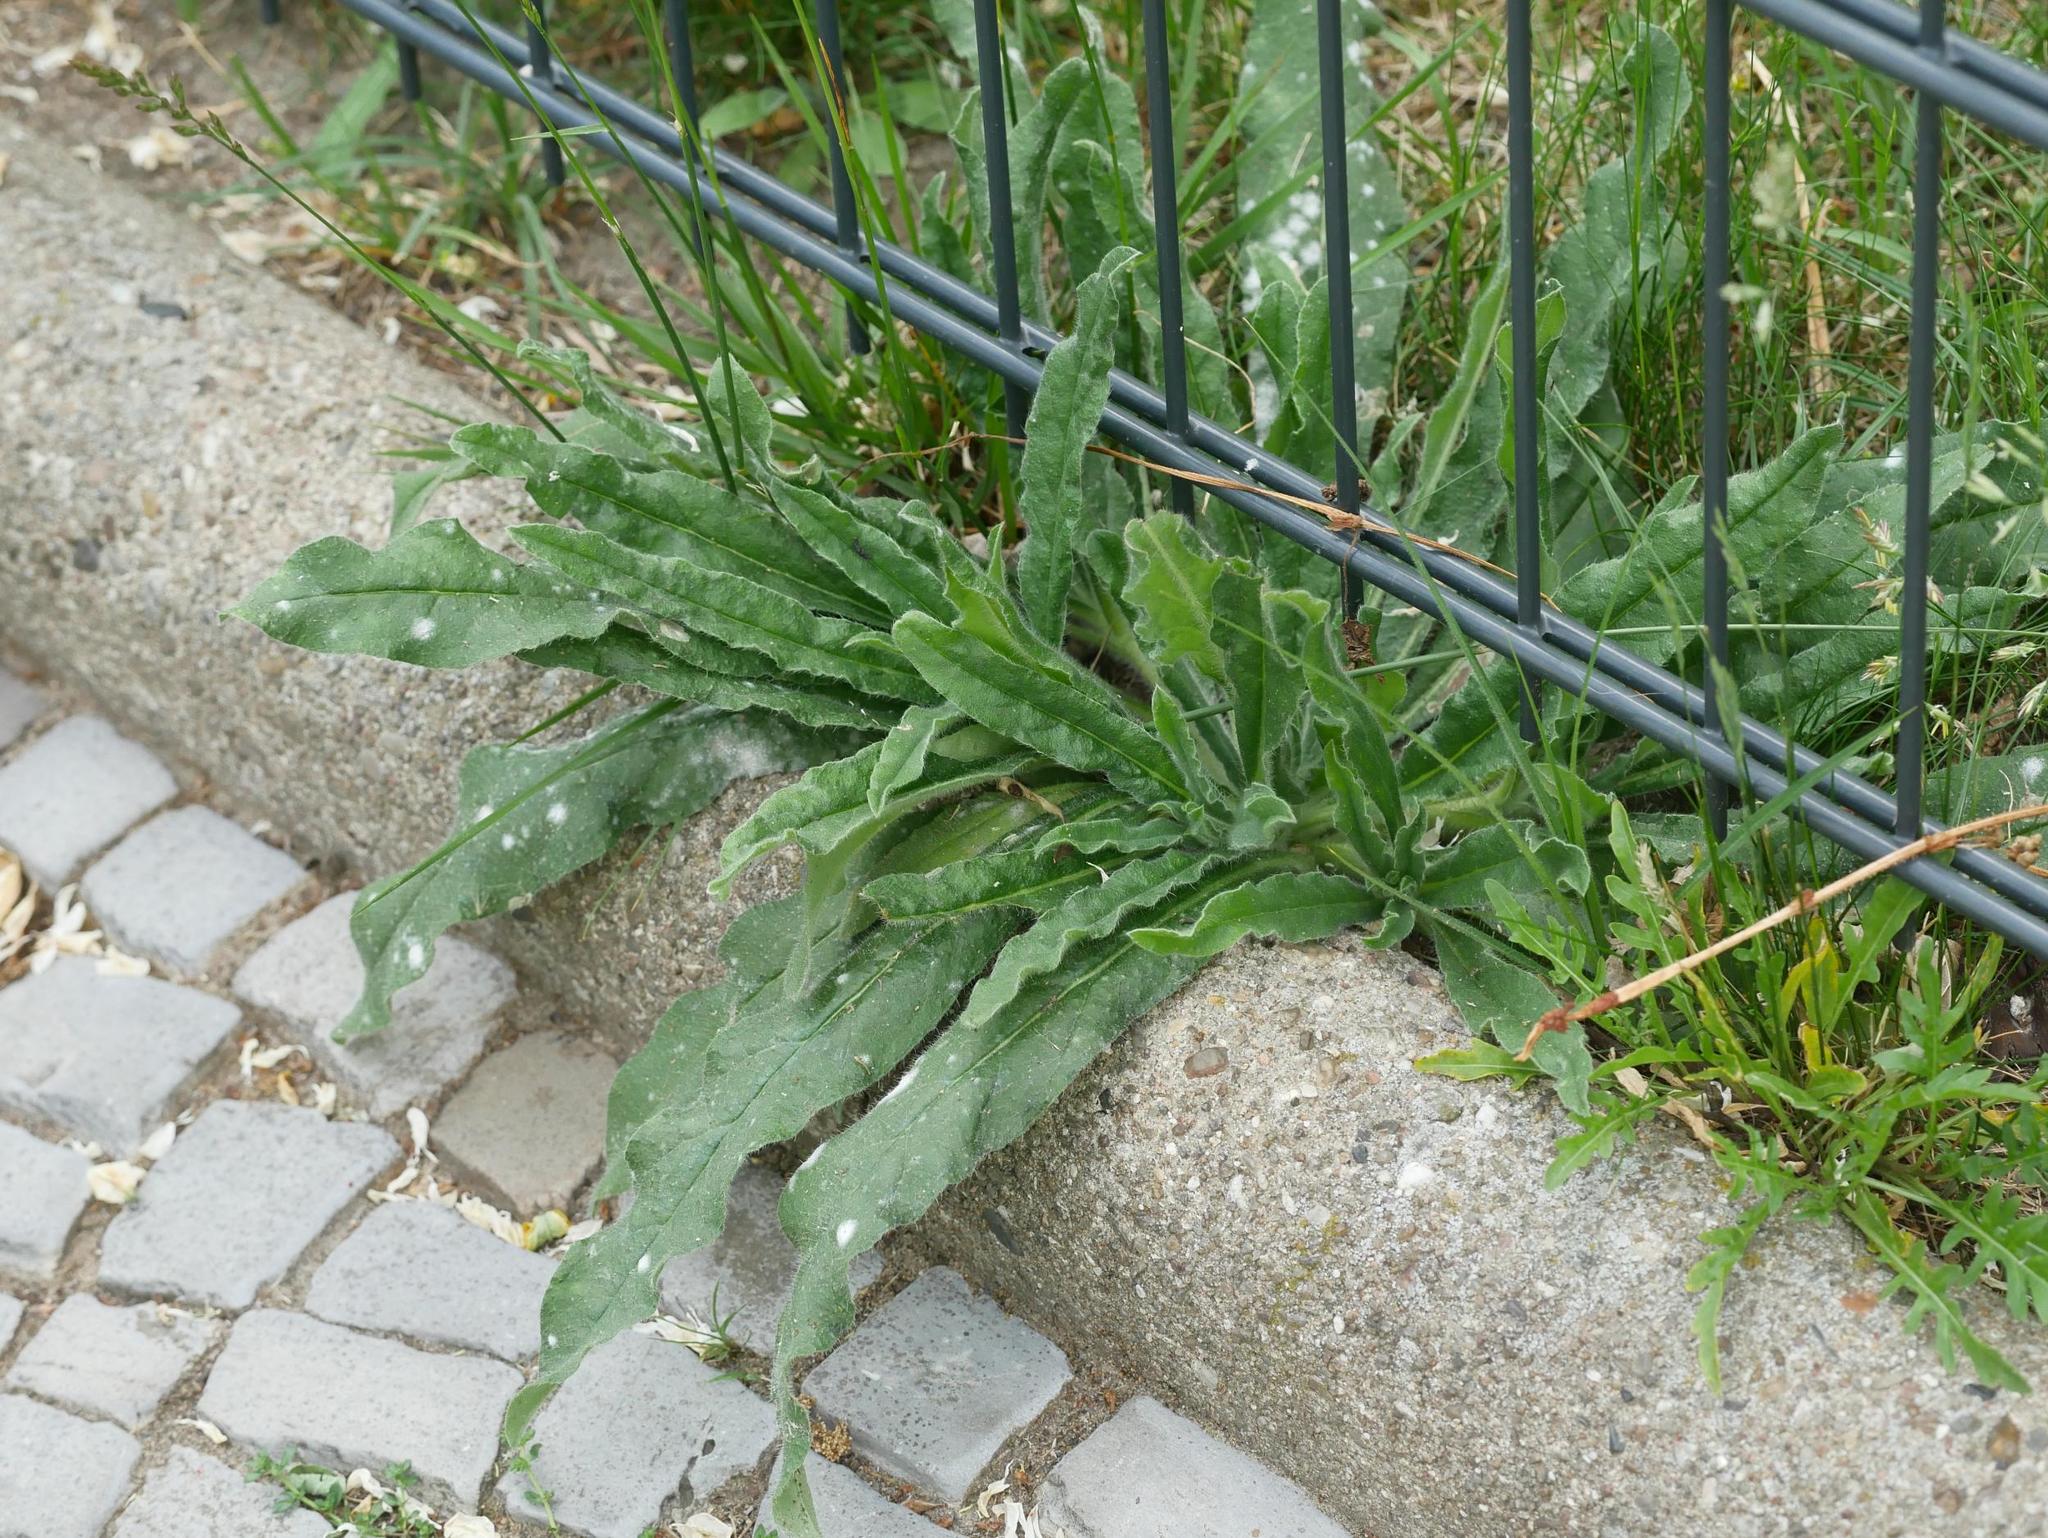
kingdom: Plantae
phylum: Tracheophyta
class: Magnoliopsida
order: Boraginales
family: Boraginaceae
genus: Echium
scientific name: Echium vulgare
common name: Common viper's bugloss
